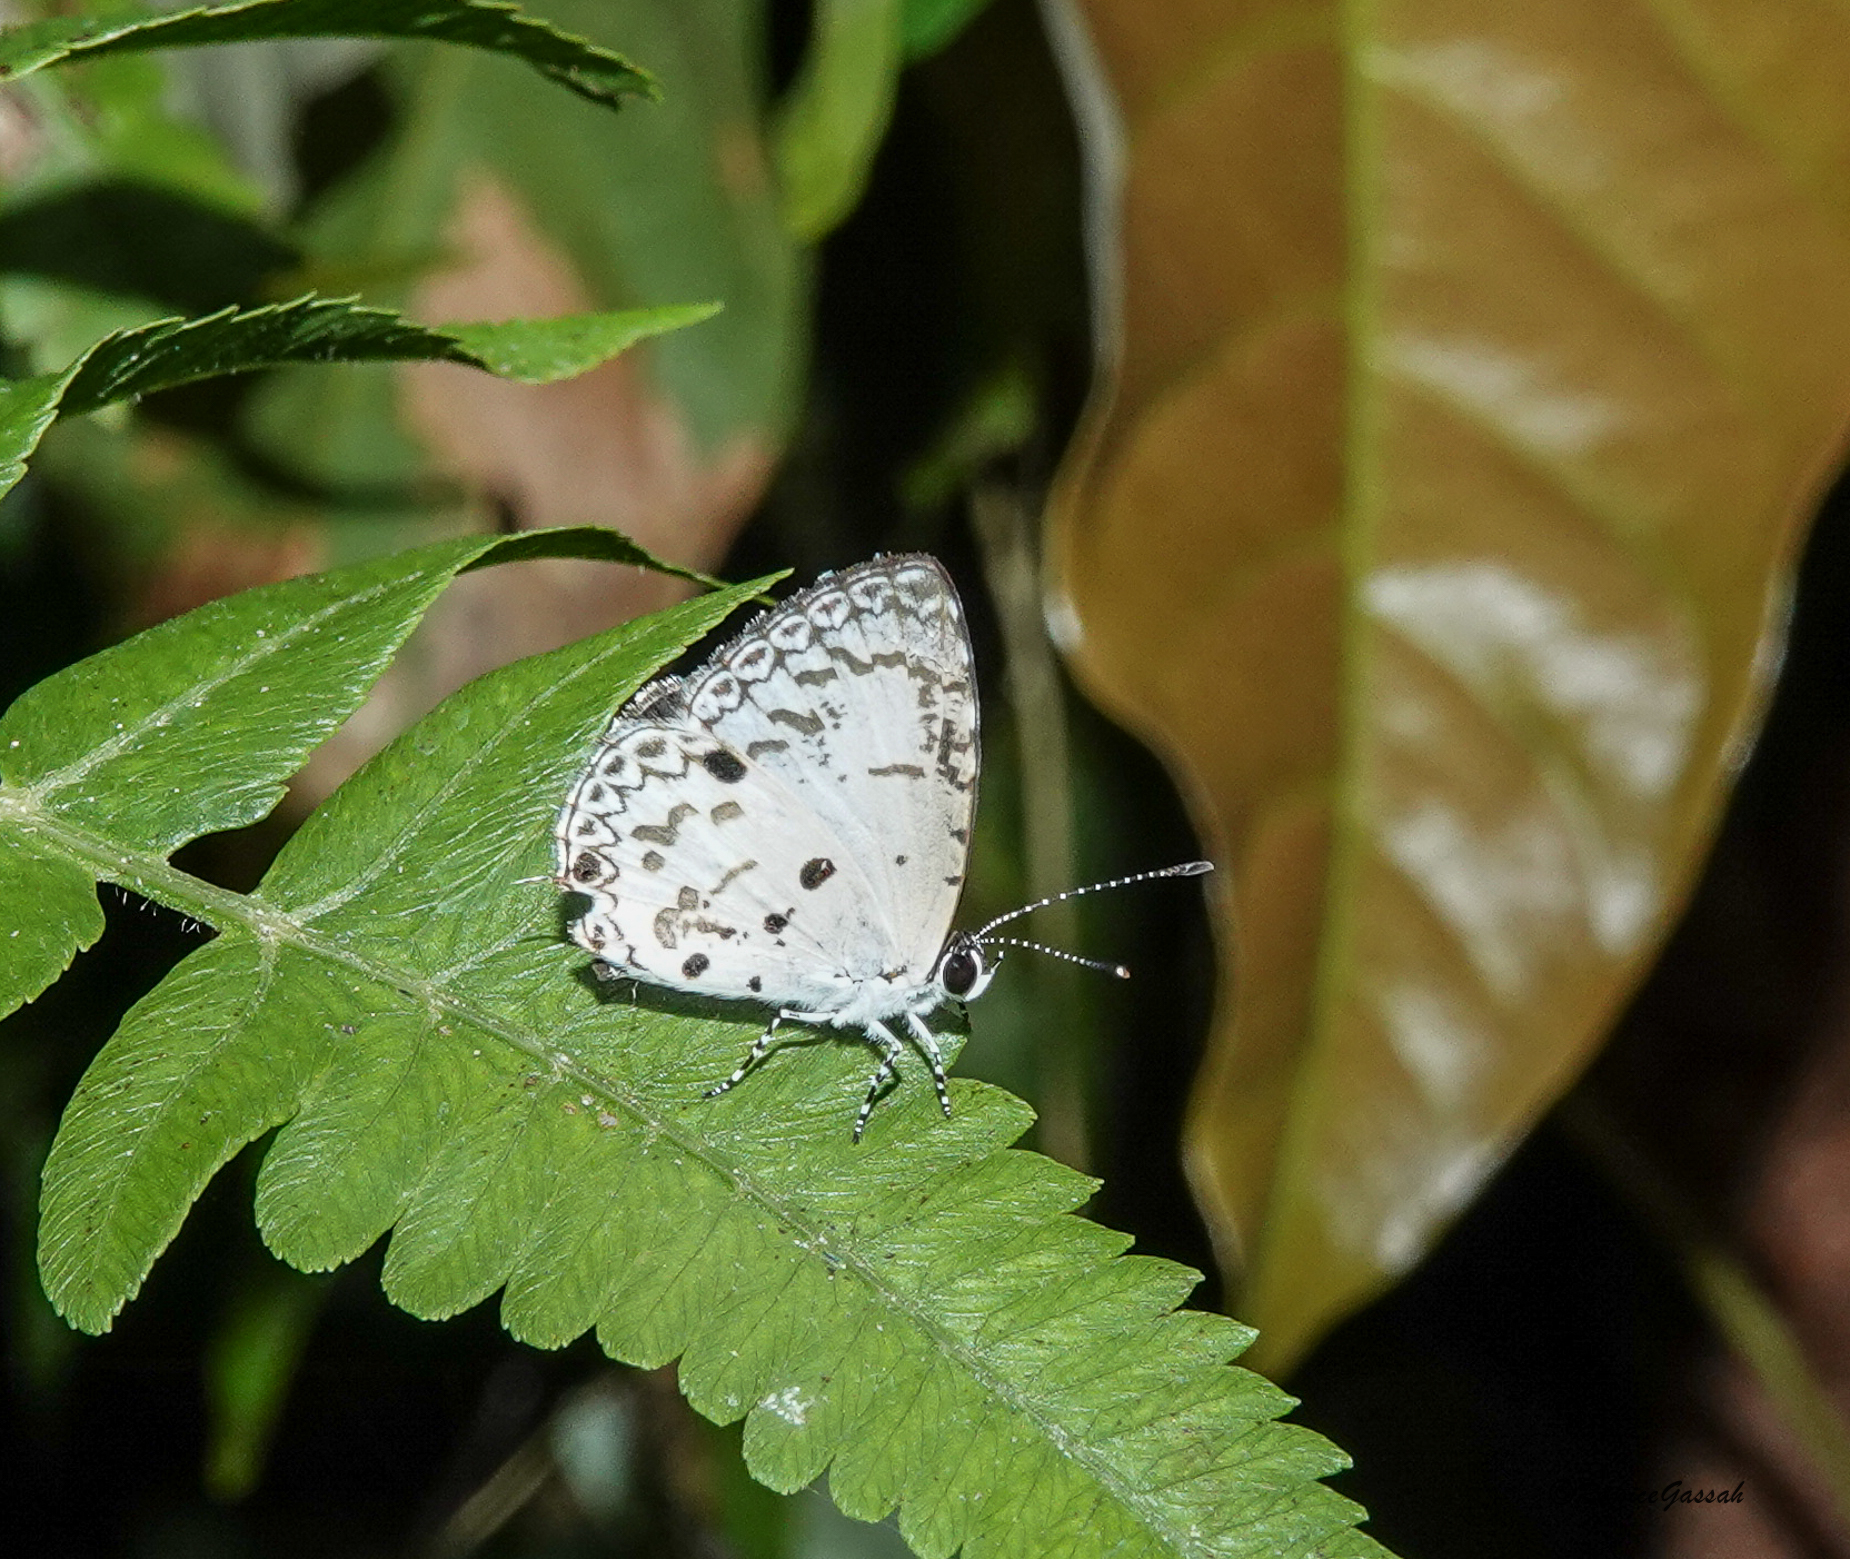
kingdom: Animalia
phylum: Arthropoda
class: Insecta
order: Lepidoptera
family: Lycaenidae
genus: Megisba
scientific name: Megisba malaya
